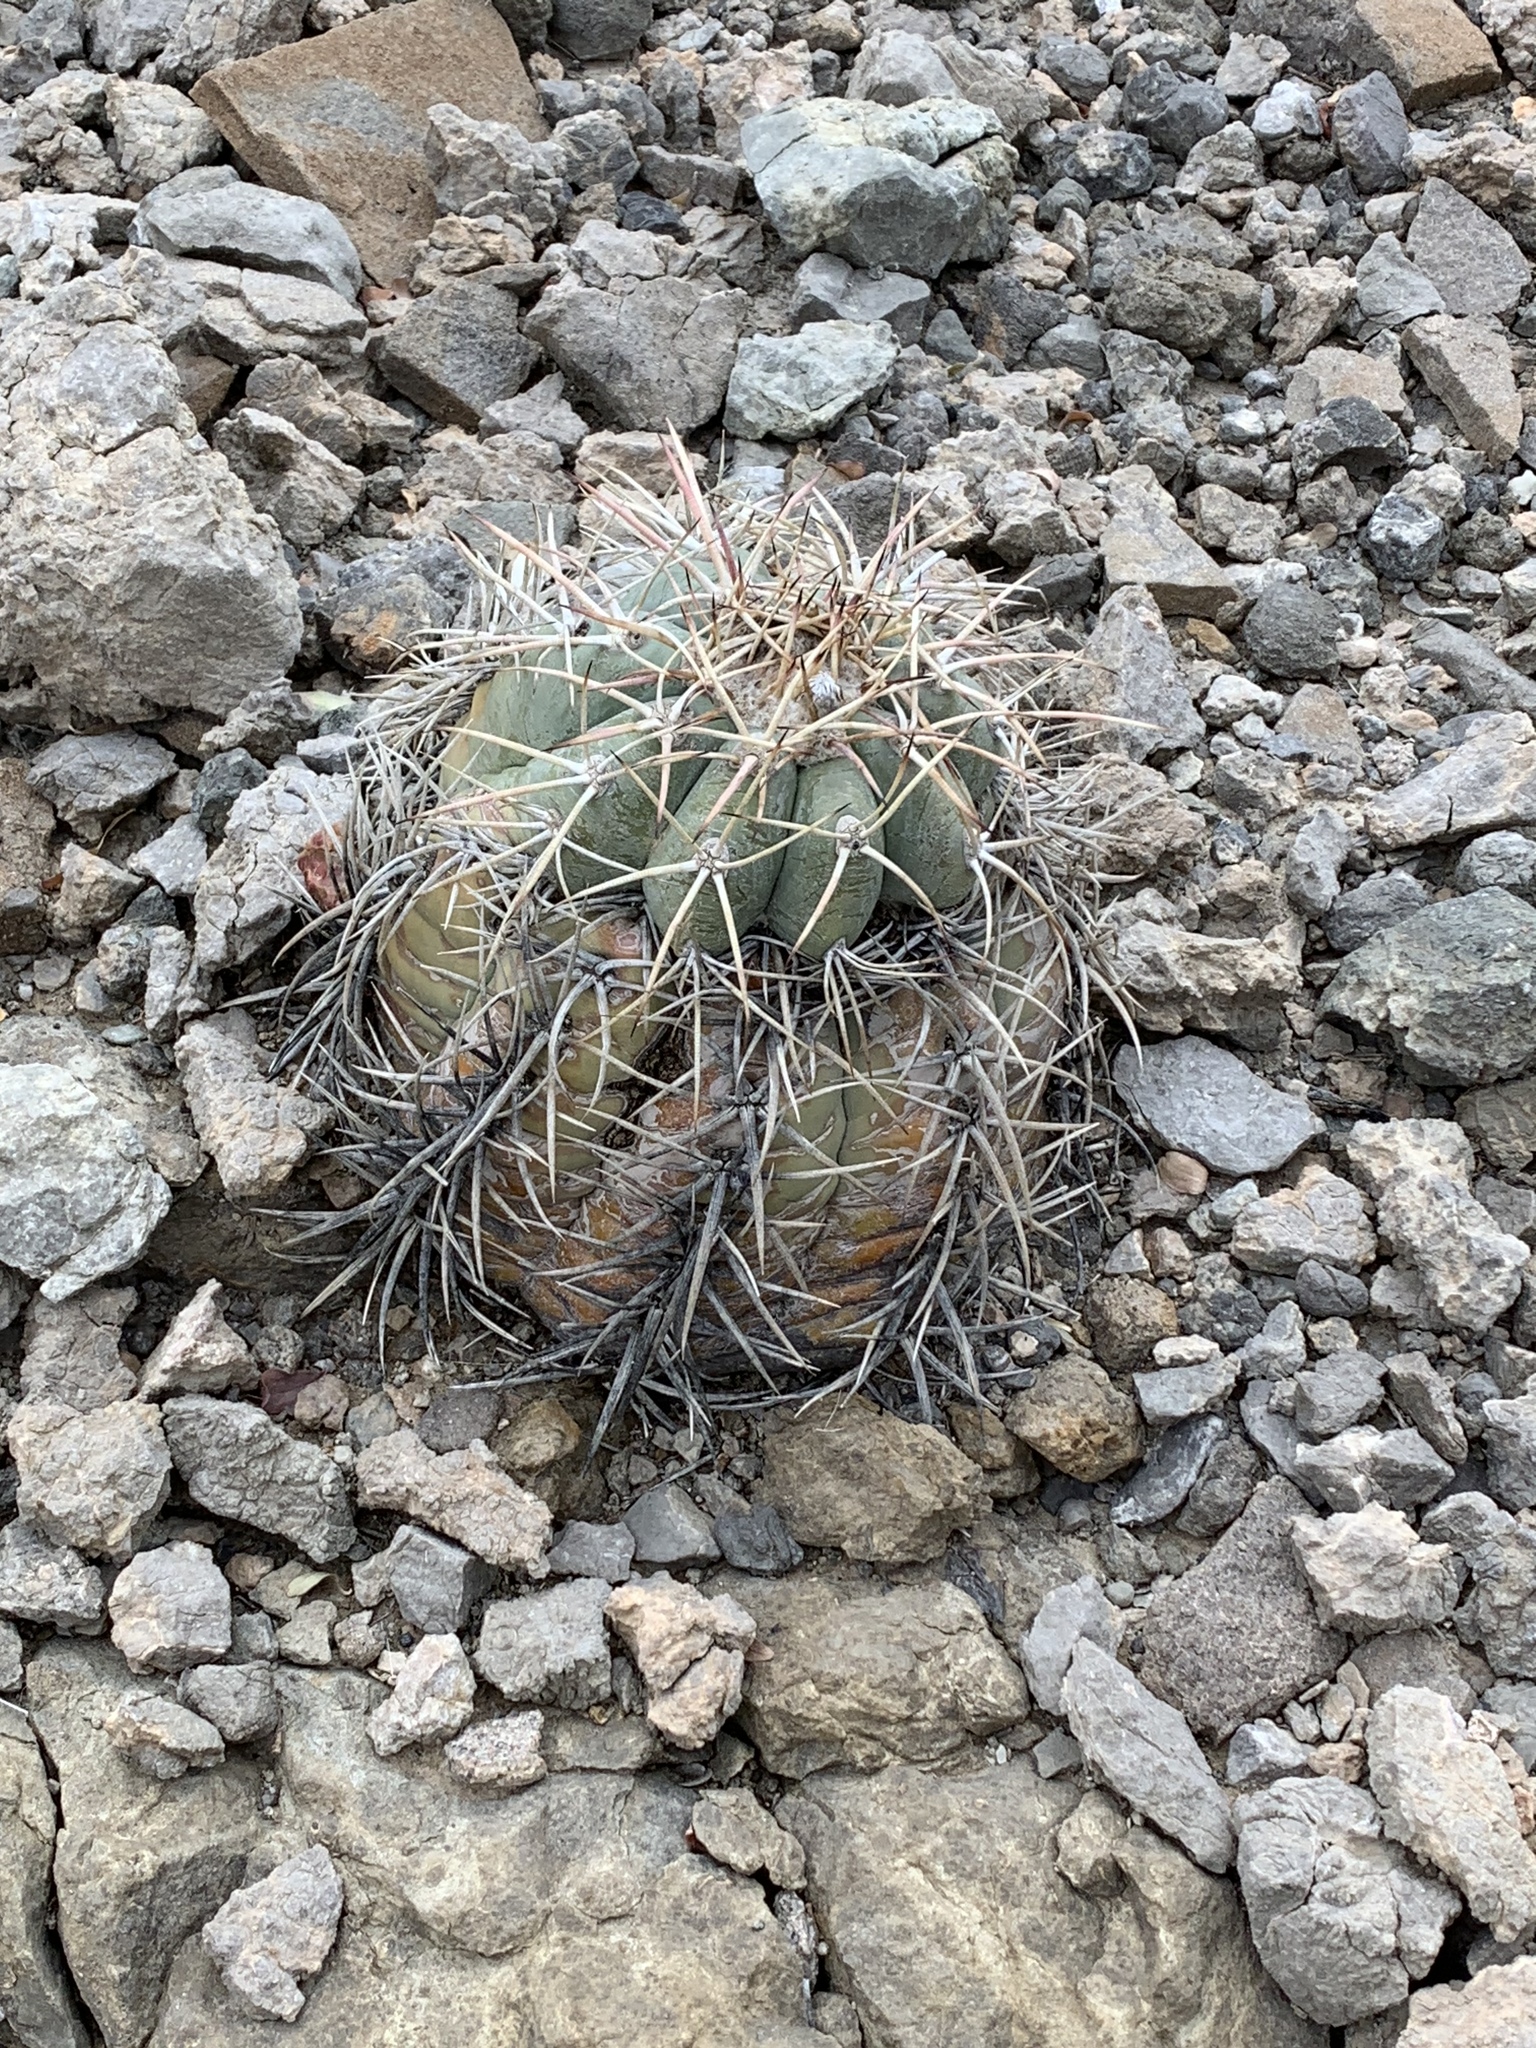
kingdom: Plantae
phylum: Tracheophyta
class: Magnoliopsida
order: Caryophyllales
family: Cactaceae
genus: Echinocactus
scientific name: Echinocactus horizonthalonius
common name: Devilshead
